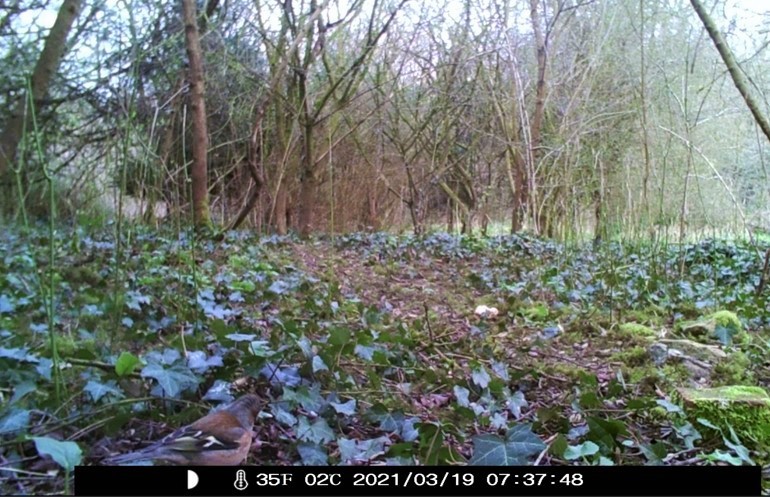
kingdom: Animalia
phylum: Chordata
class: Aves
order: Passeriformes
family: Fringillidae
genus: Fringilla
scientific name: Fringilla coelebs
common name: Common chaffinch
